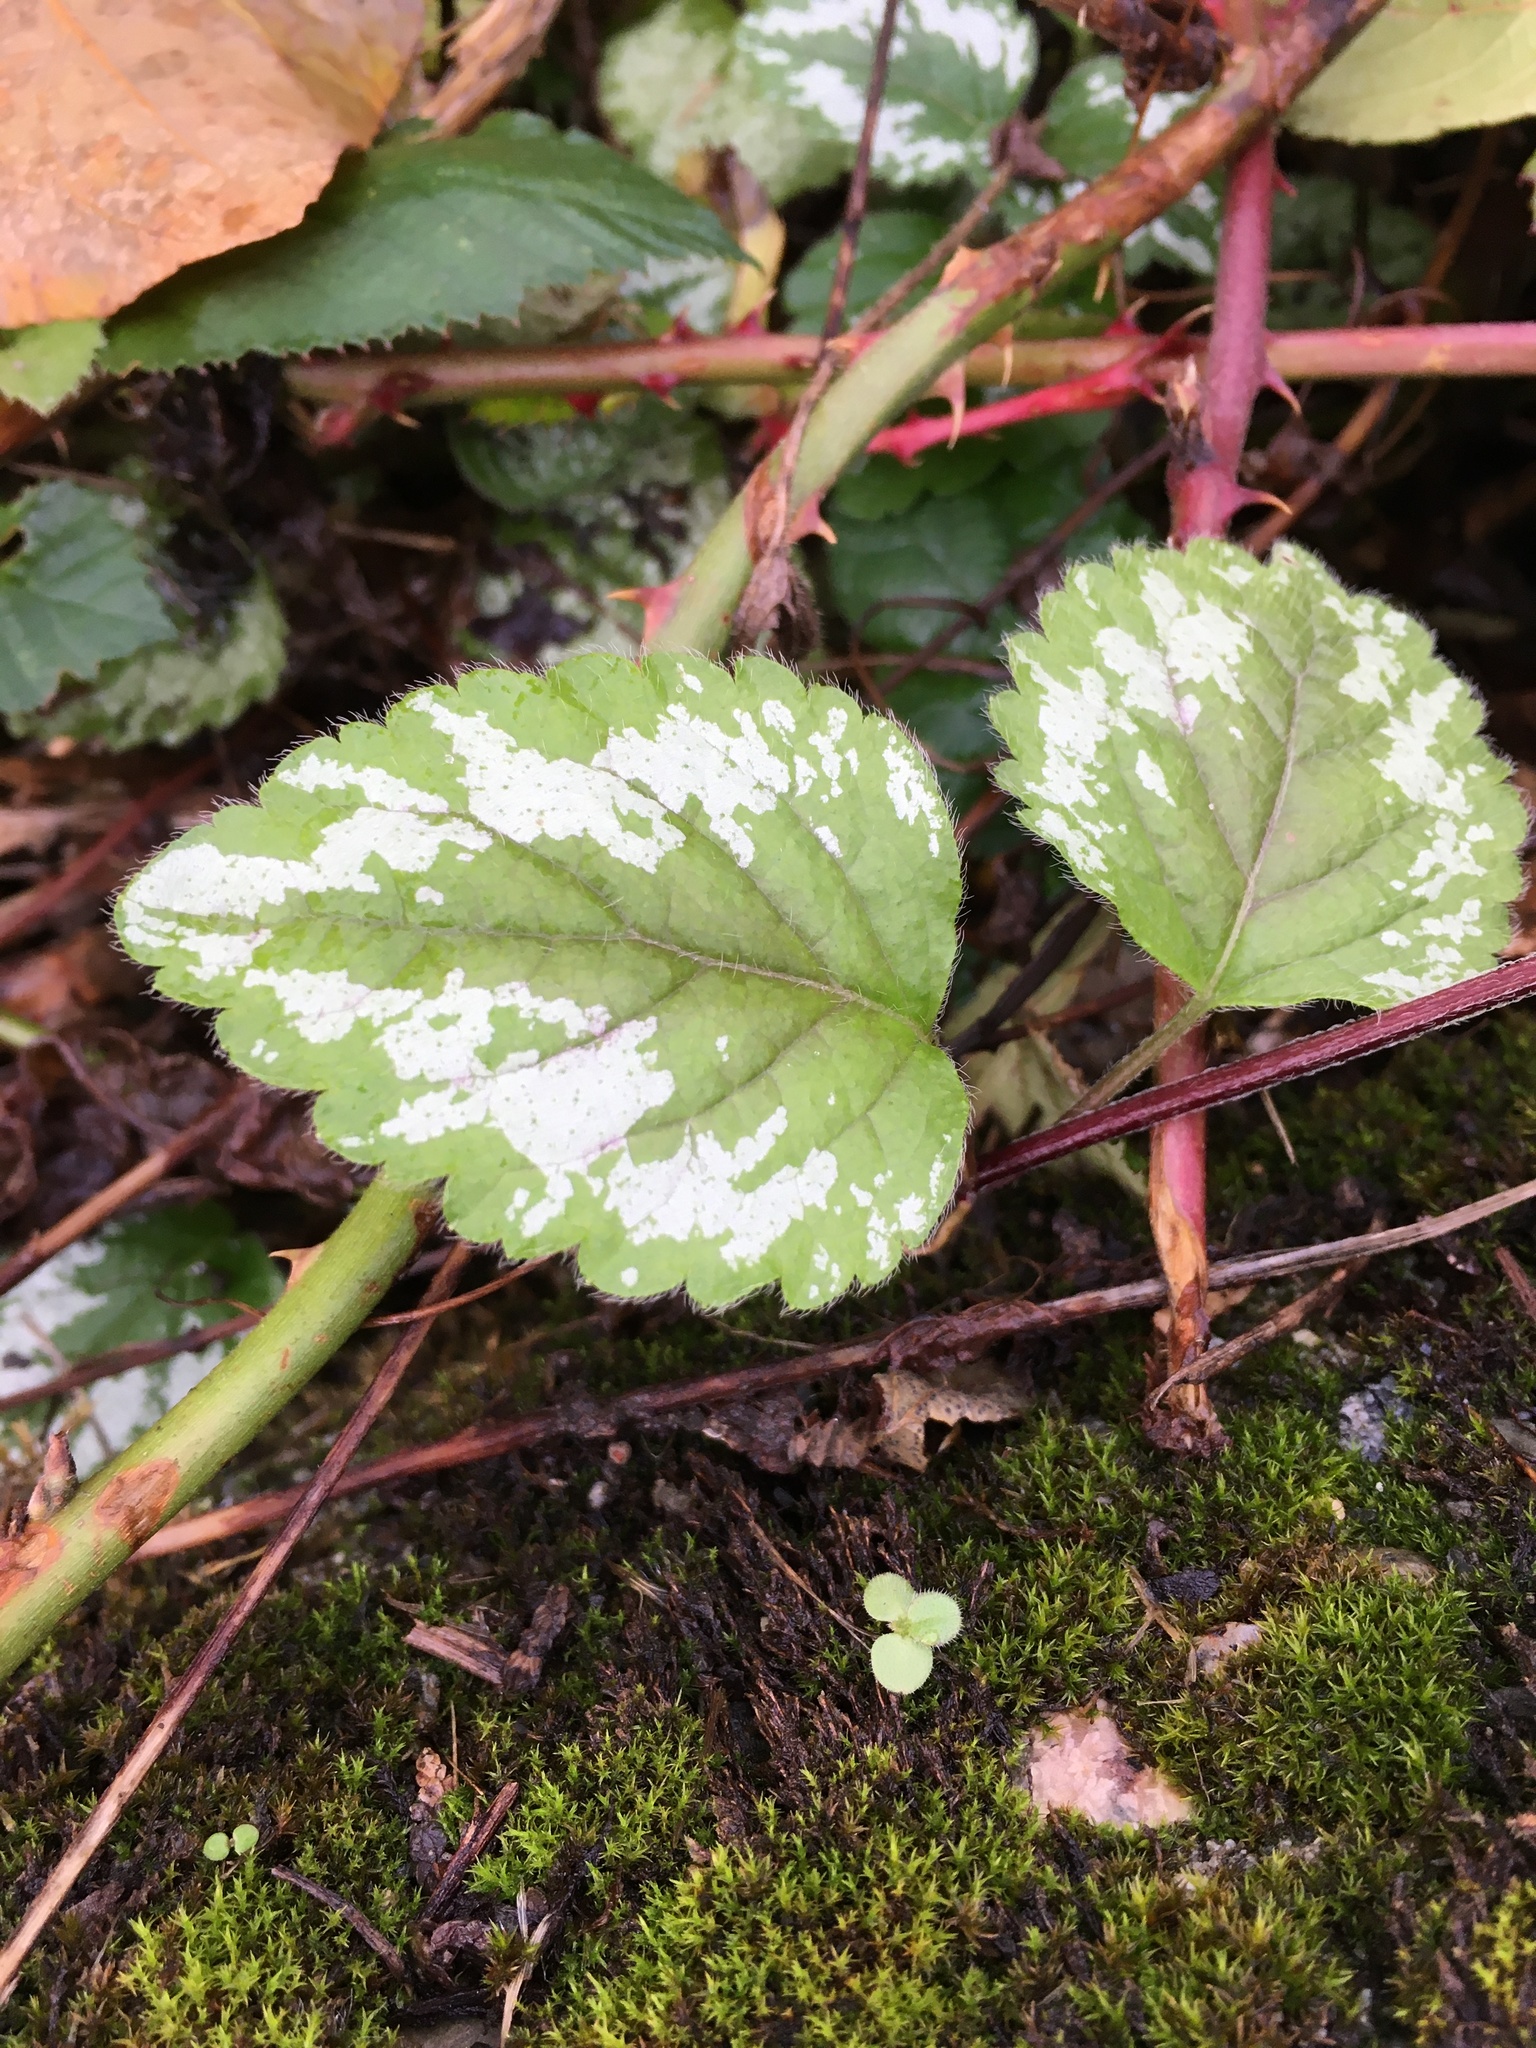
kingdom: Plantae
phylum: Tracheophyta
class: Magnoliopsida
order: Lamiales
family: Lamiaceae
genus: Lamium
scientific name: Lamium galeobdolon
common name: Yellow archangel
